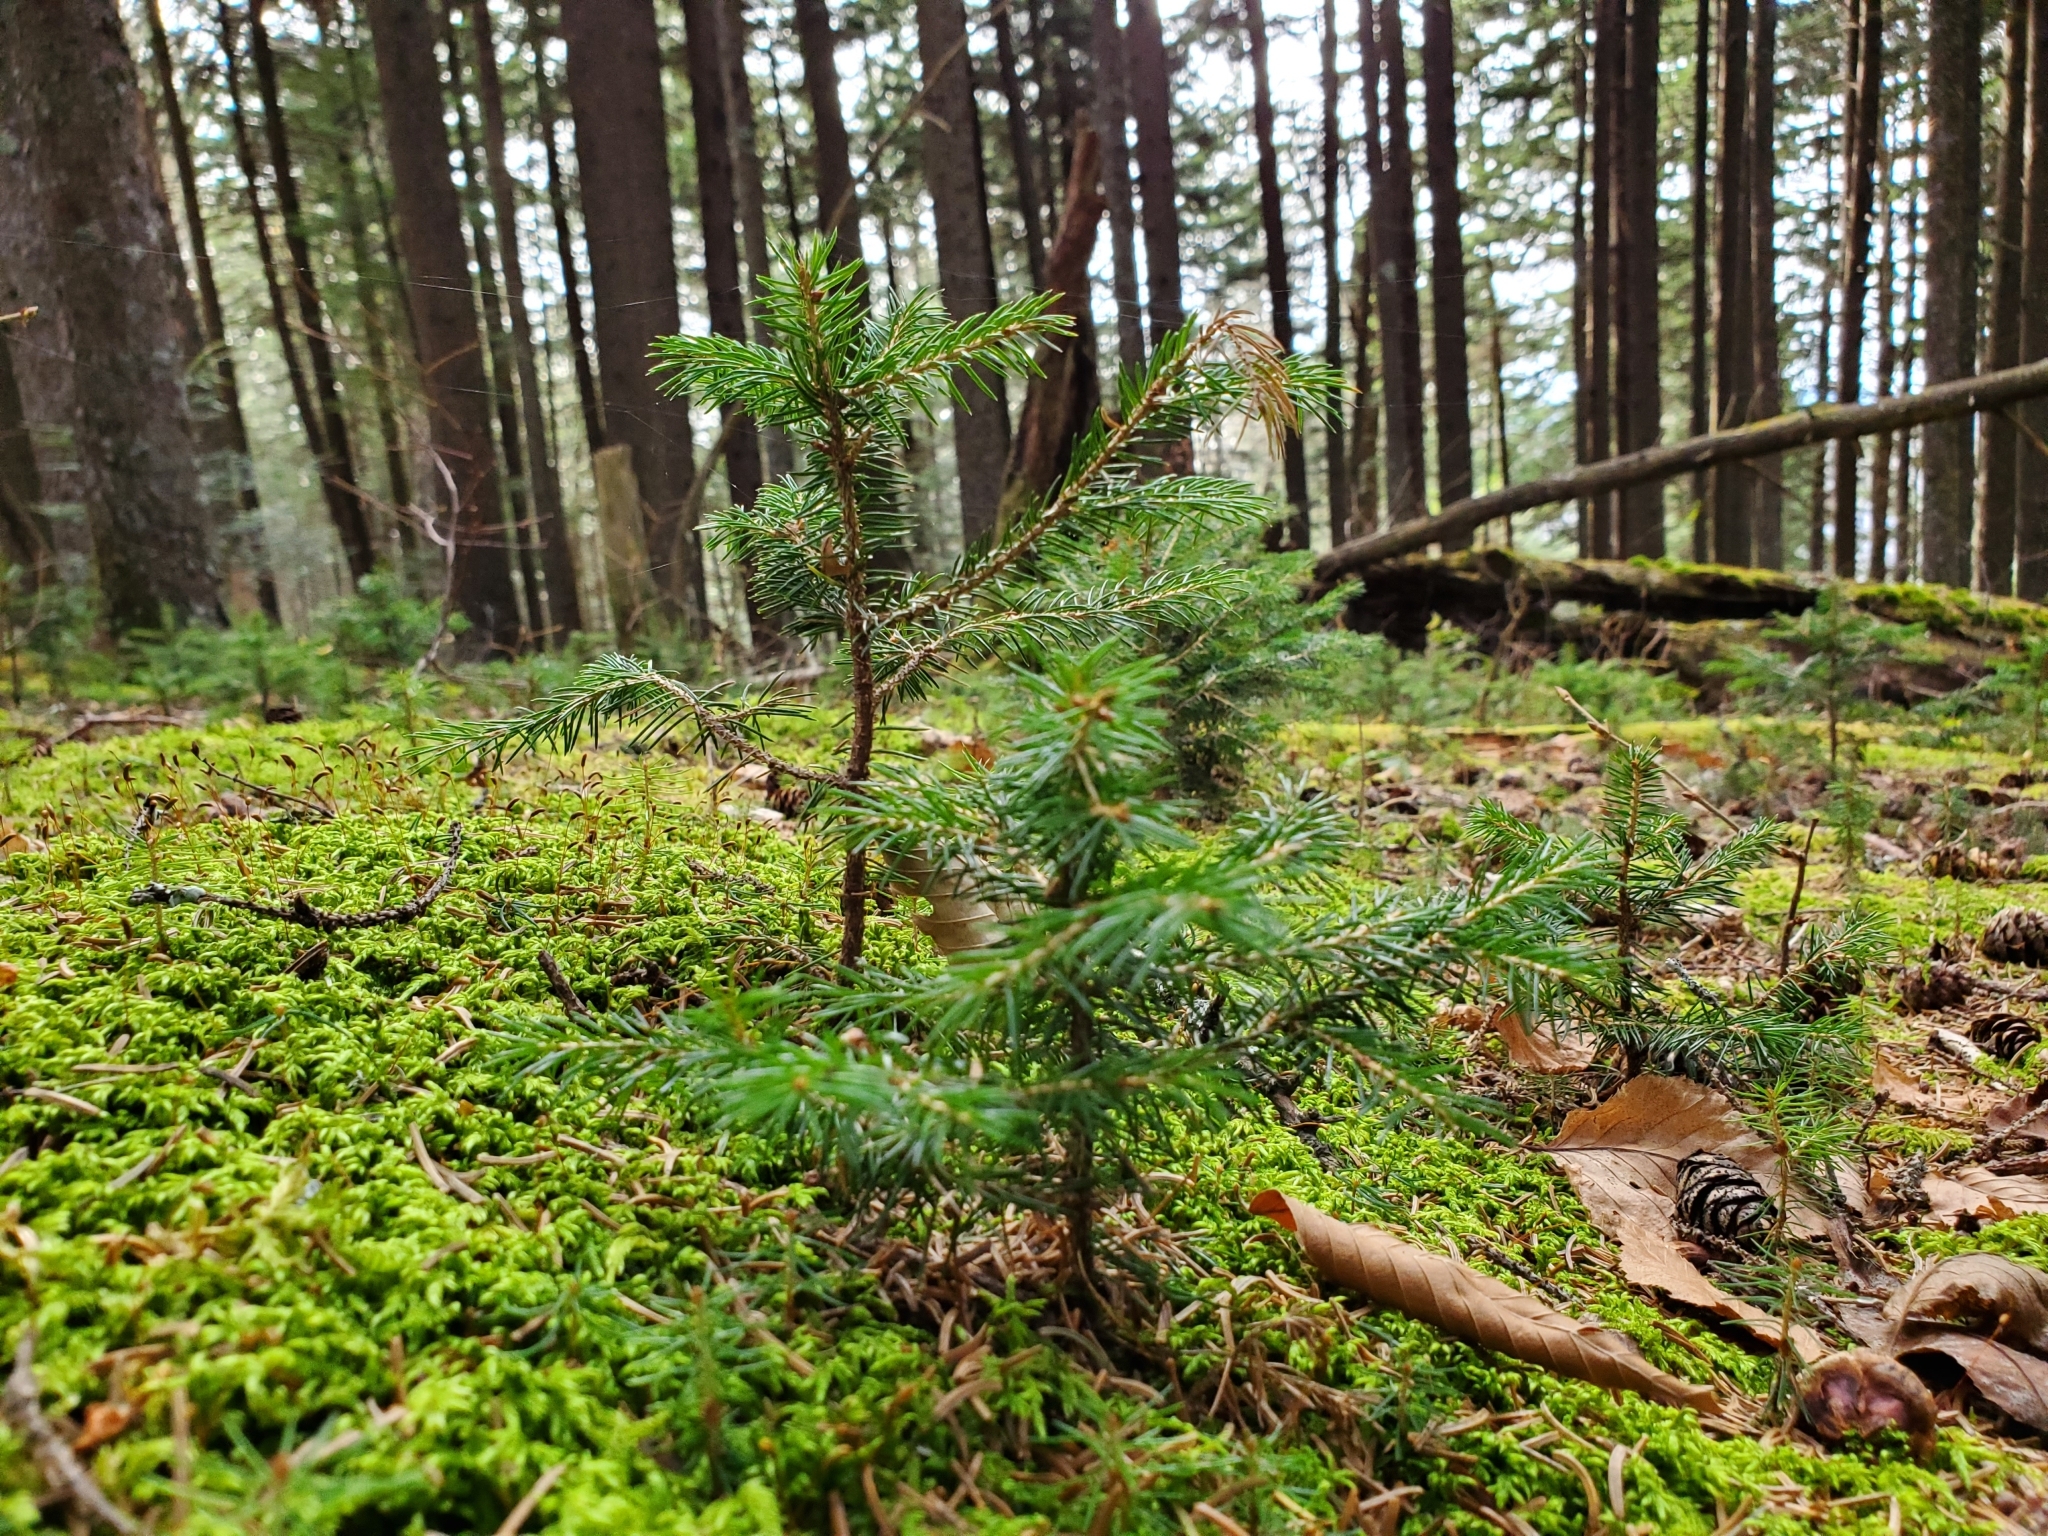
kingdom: Plantae
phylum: Tracheophyta
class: Pinopsida
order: Pinales
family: Pinaceae
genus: Picea
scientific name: Picea rubens
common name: Red spruce
